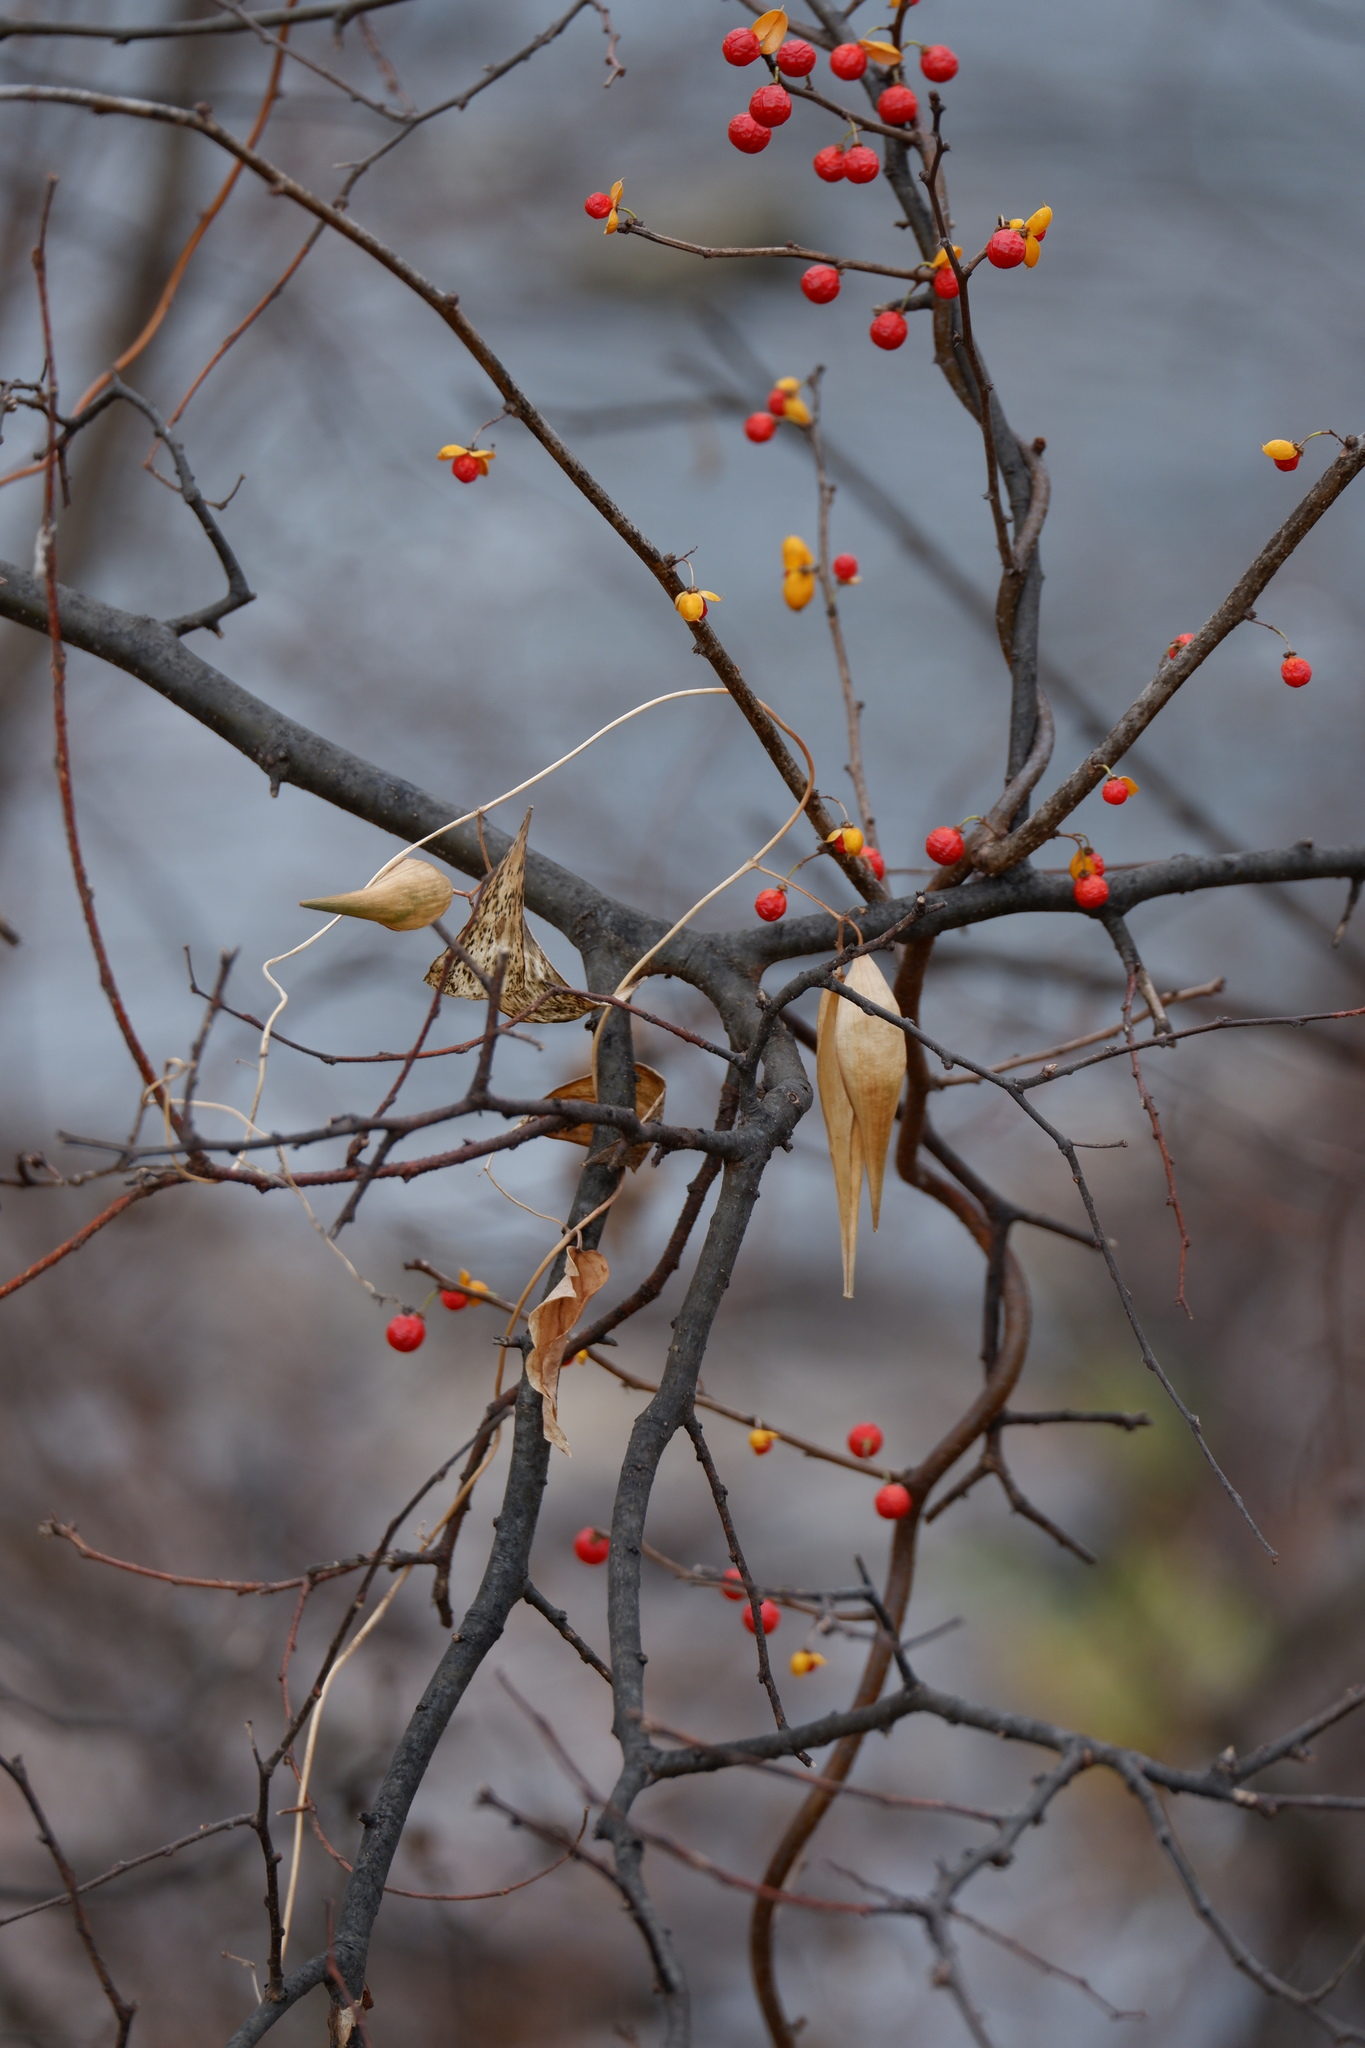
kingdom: Plantae
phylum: Tracheophyta
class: Magnoliopsida
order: Celastrales
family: Celastraceae
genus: Celastrus
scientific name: Celastrus orbiculatus
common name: Oriental bittersweet
